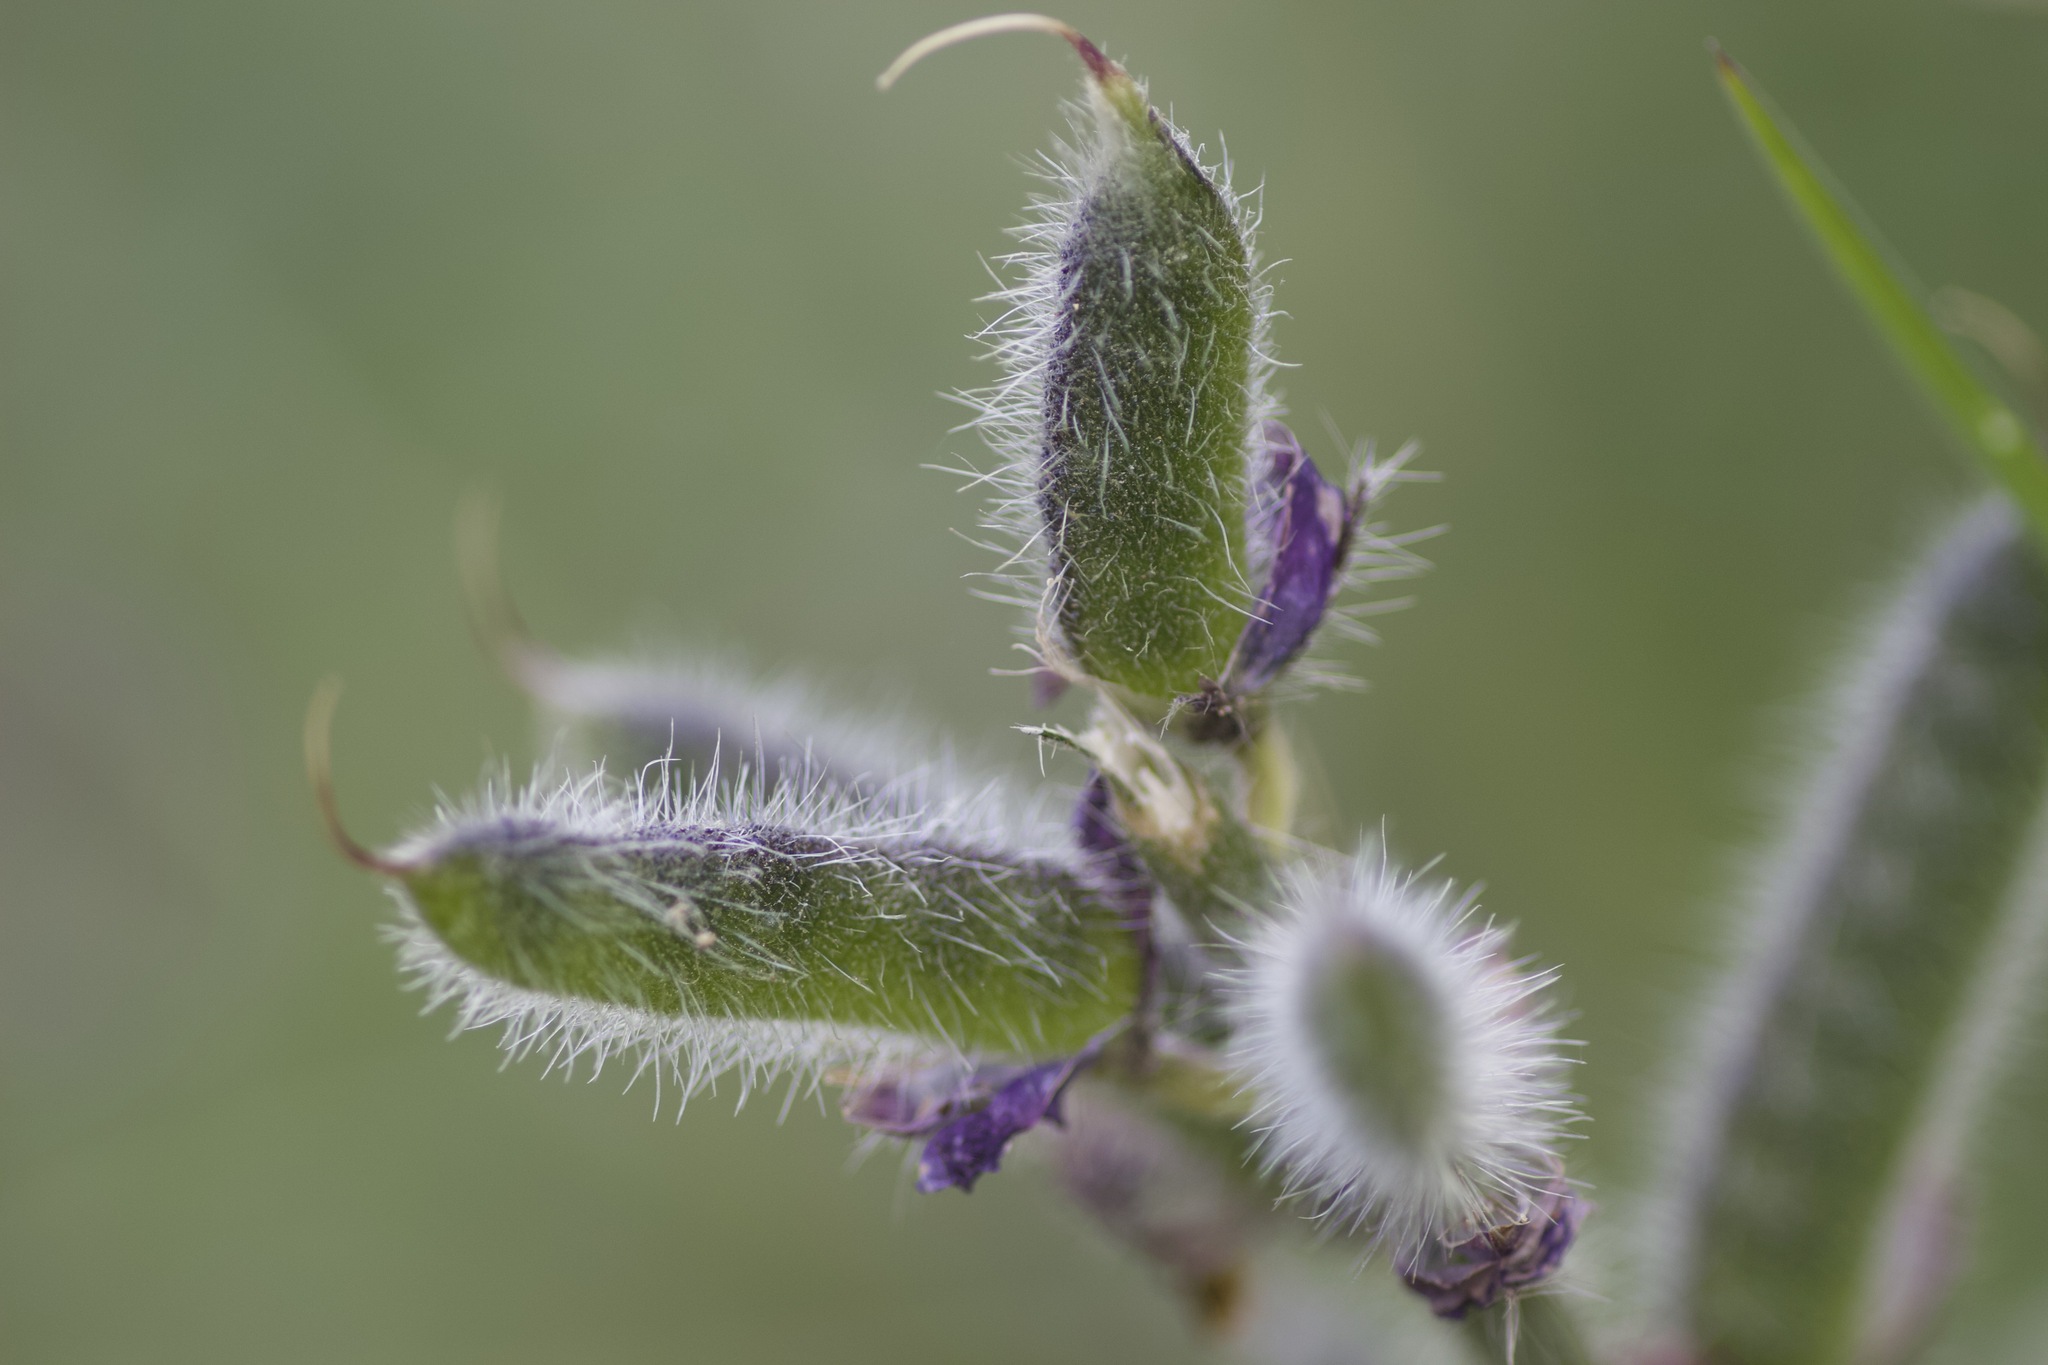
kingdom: Plantae
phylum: Tracheophyta
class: Magnoliopsida
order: Fabales
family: Fabaceae
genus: Lupinus
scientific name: Lupinus hirsutissimus
